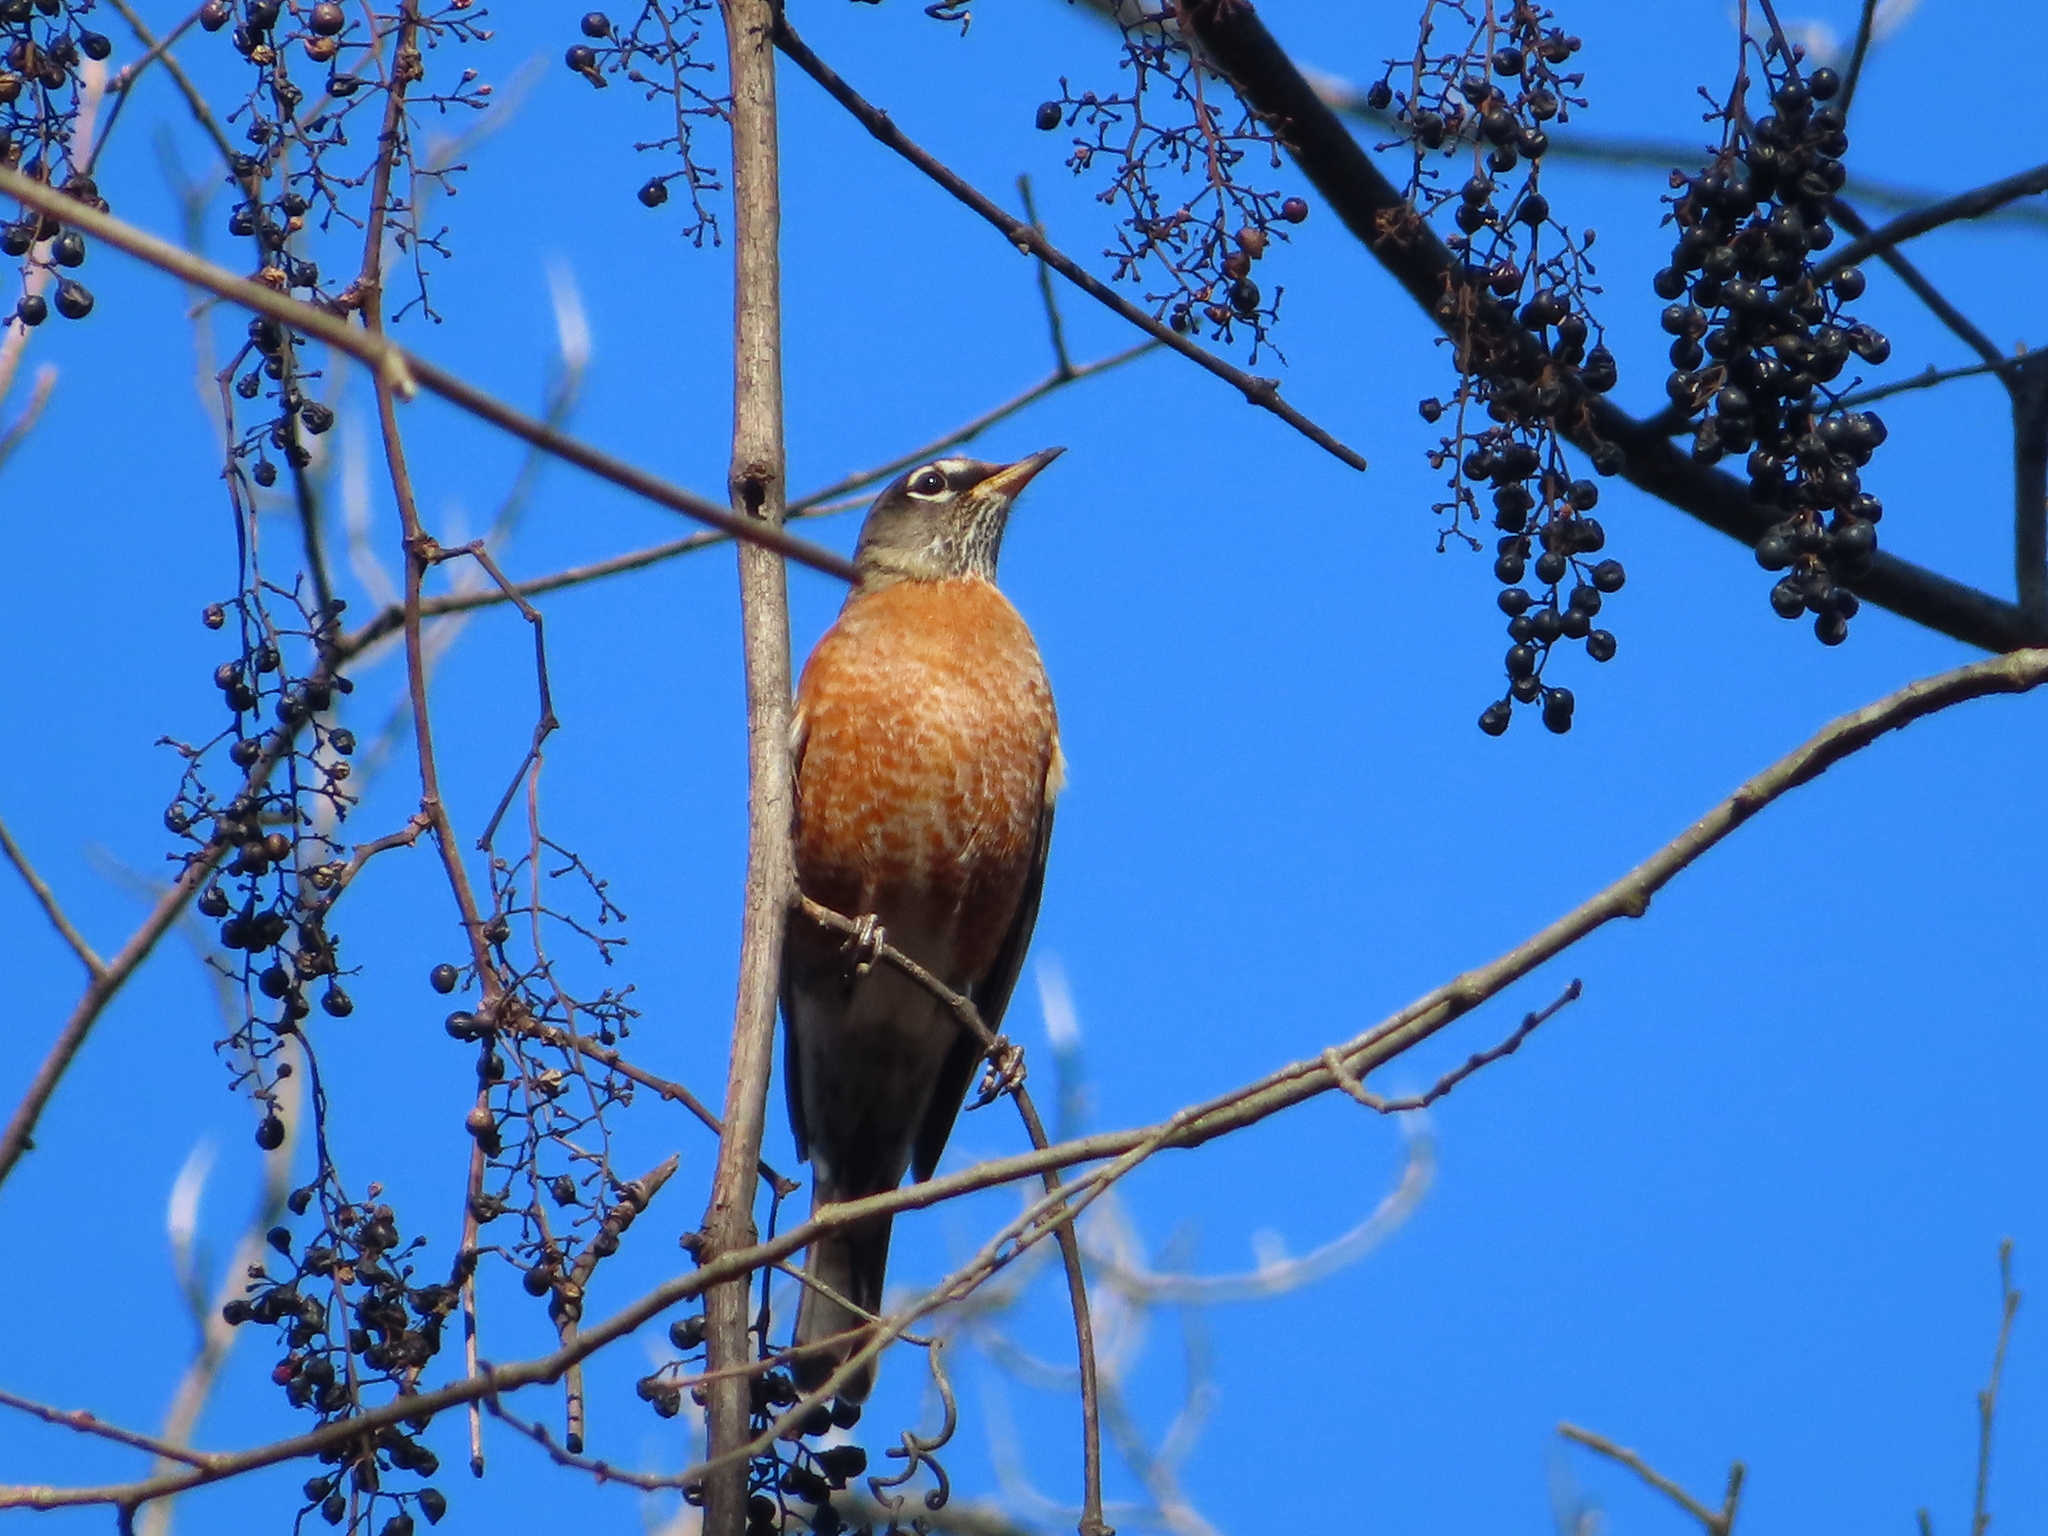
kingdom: Animalia
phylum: Chordata
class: Aves
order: Passeriformes
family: Turdidae
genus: Turdus
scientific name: Turdus migratorius
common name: American robin
